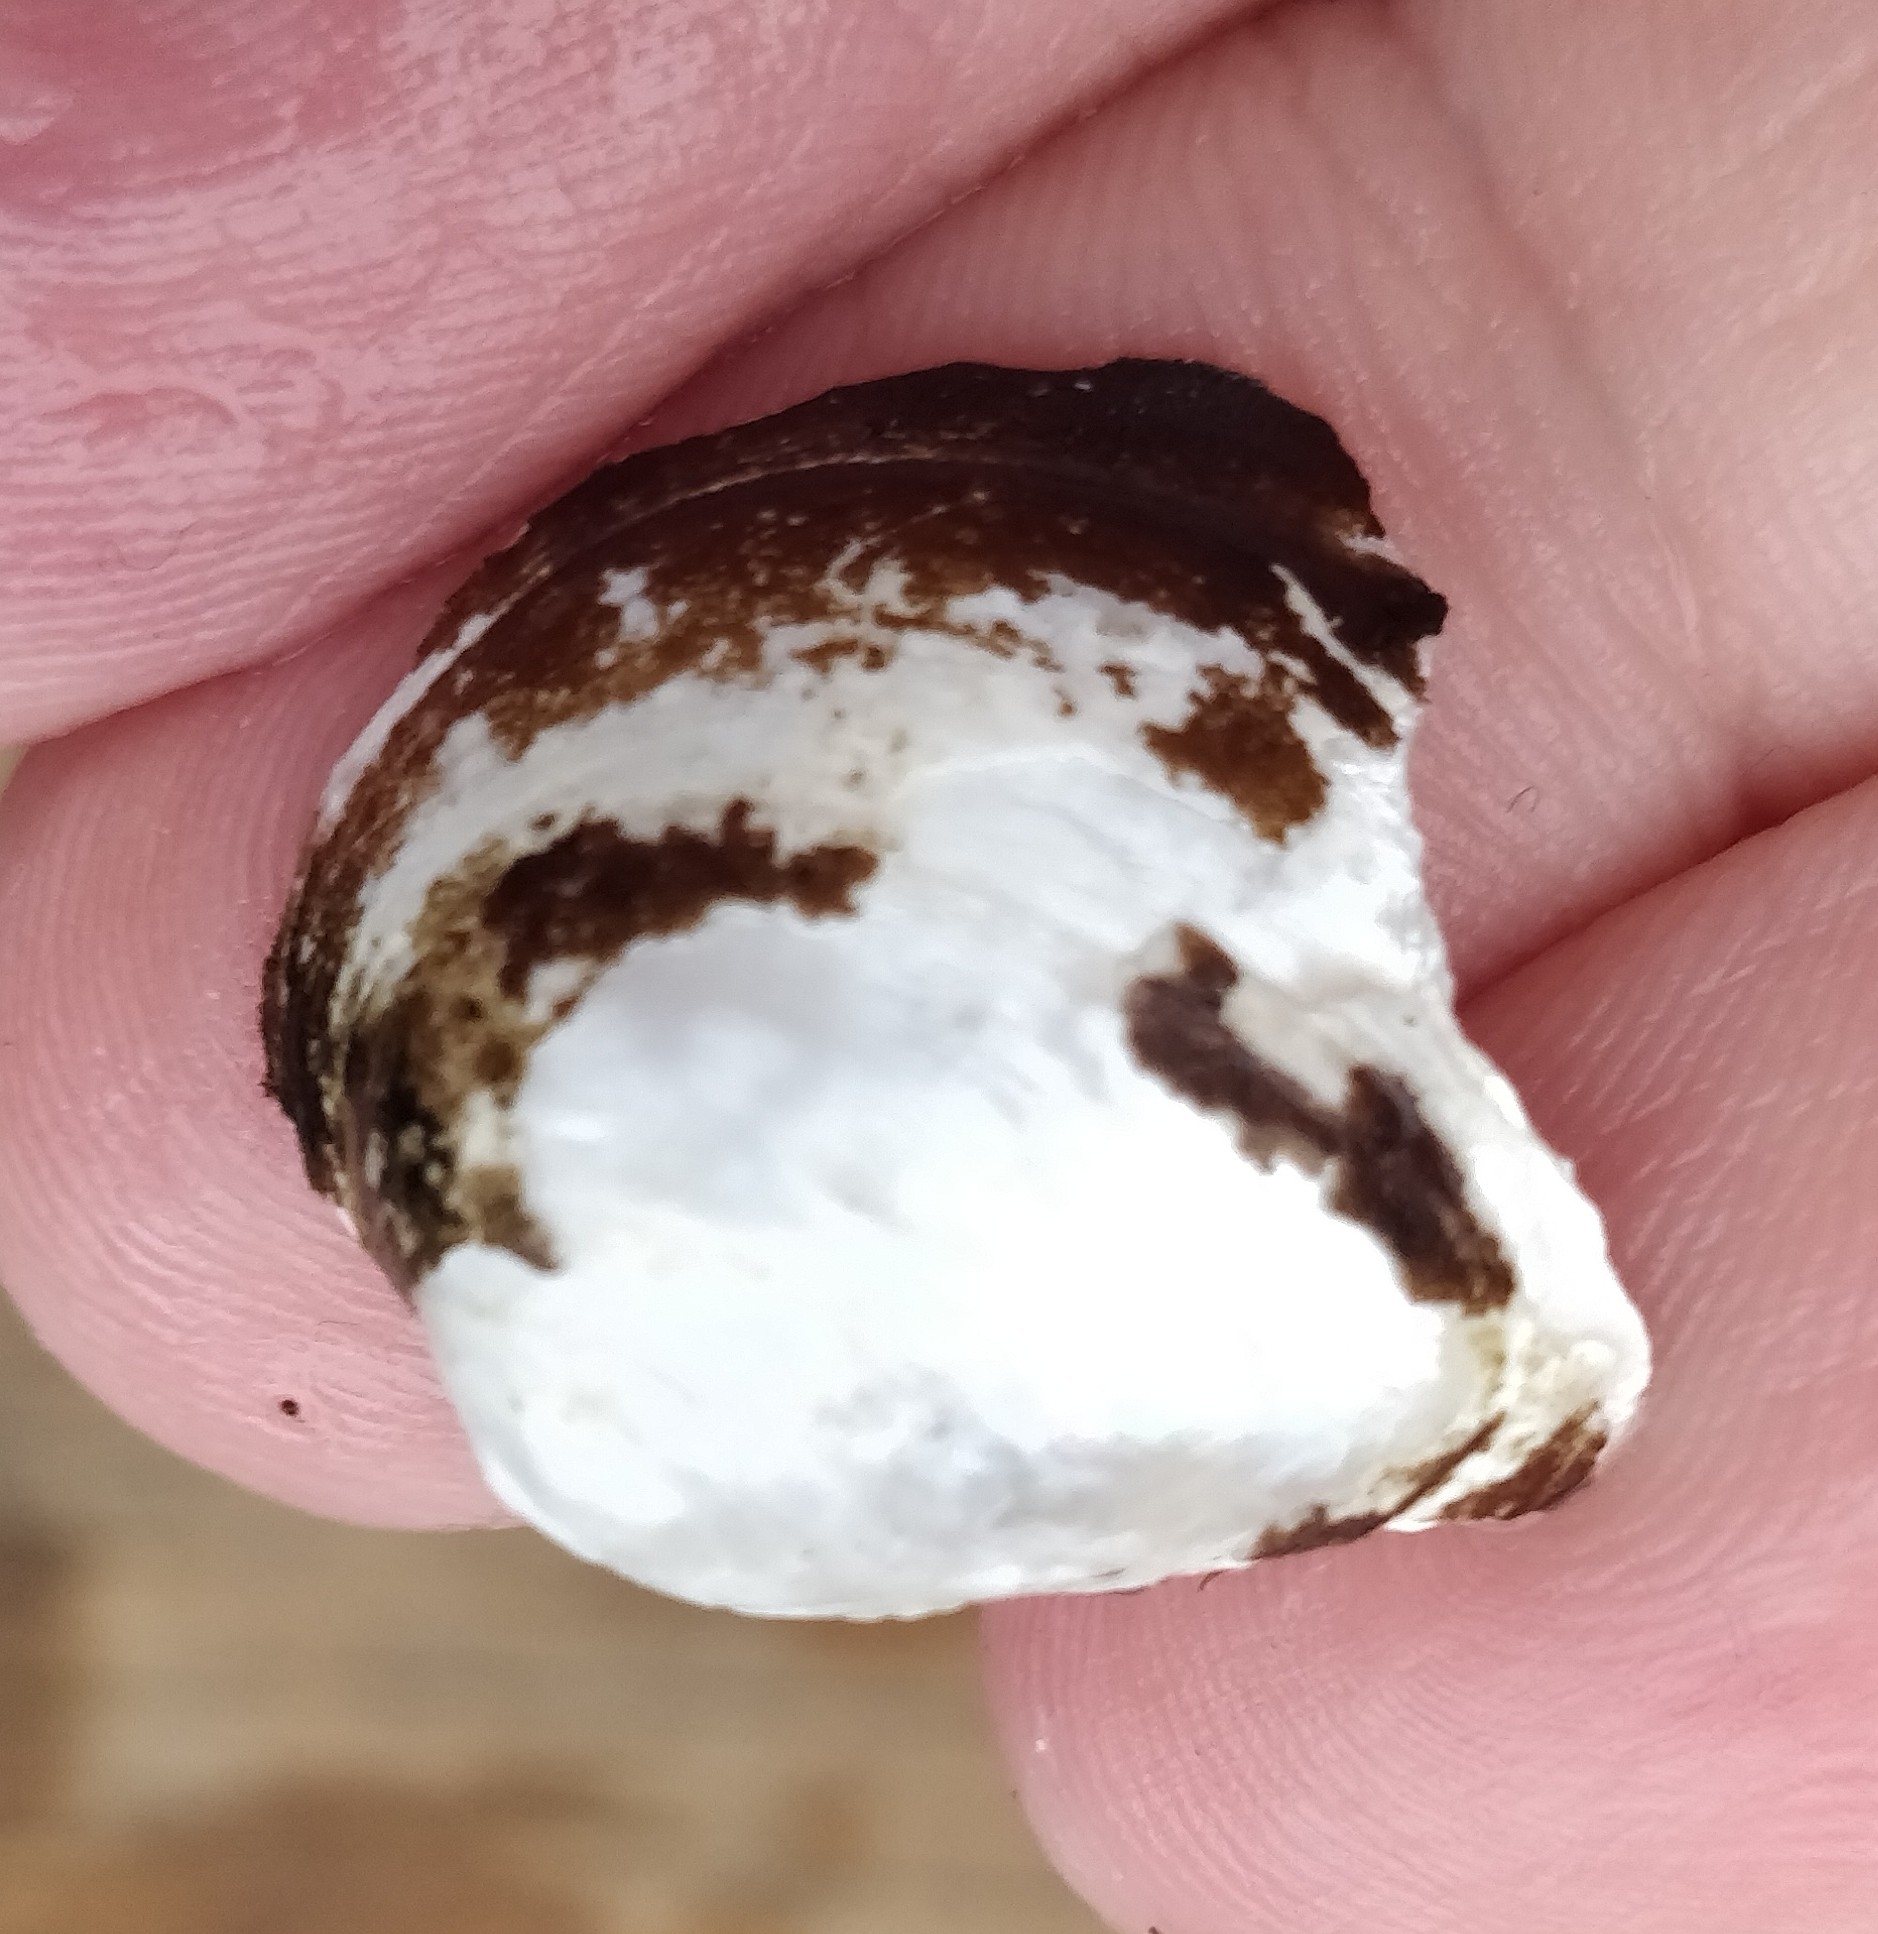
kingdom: Animalia
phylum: Mollusca
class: Bivalvia
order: Unionida
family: Unionidae
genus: Obovaria
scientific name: Obovaria olivaria
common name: Hickorynut
